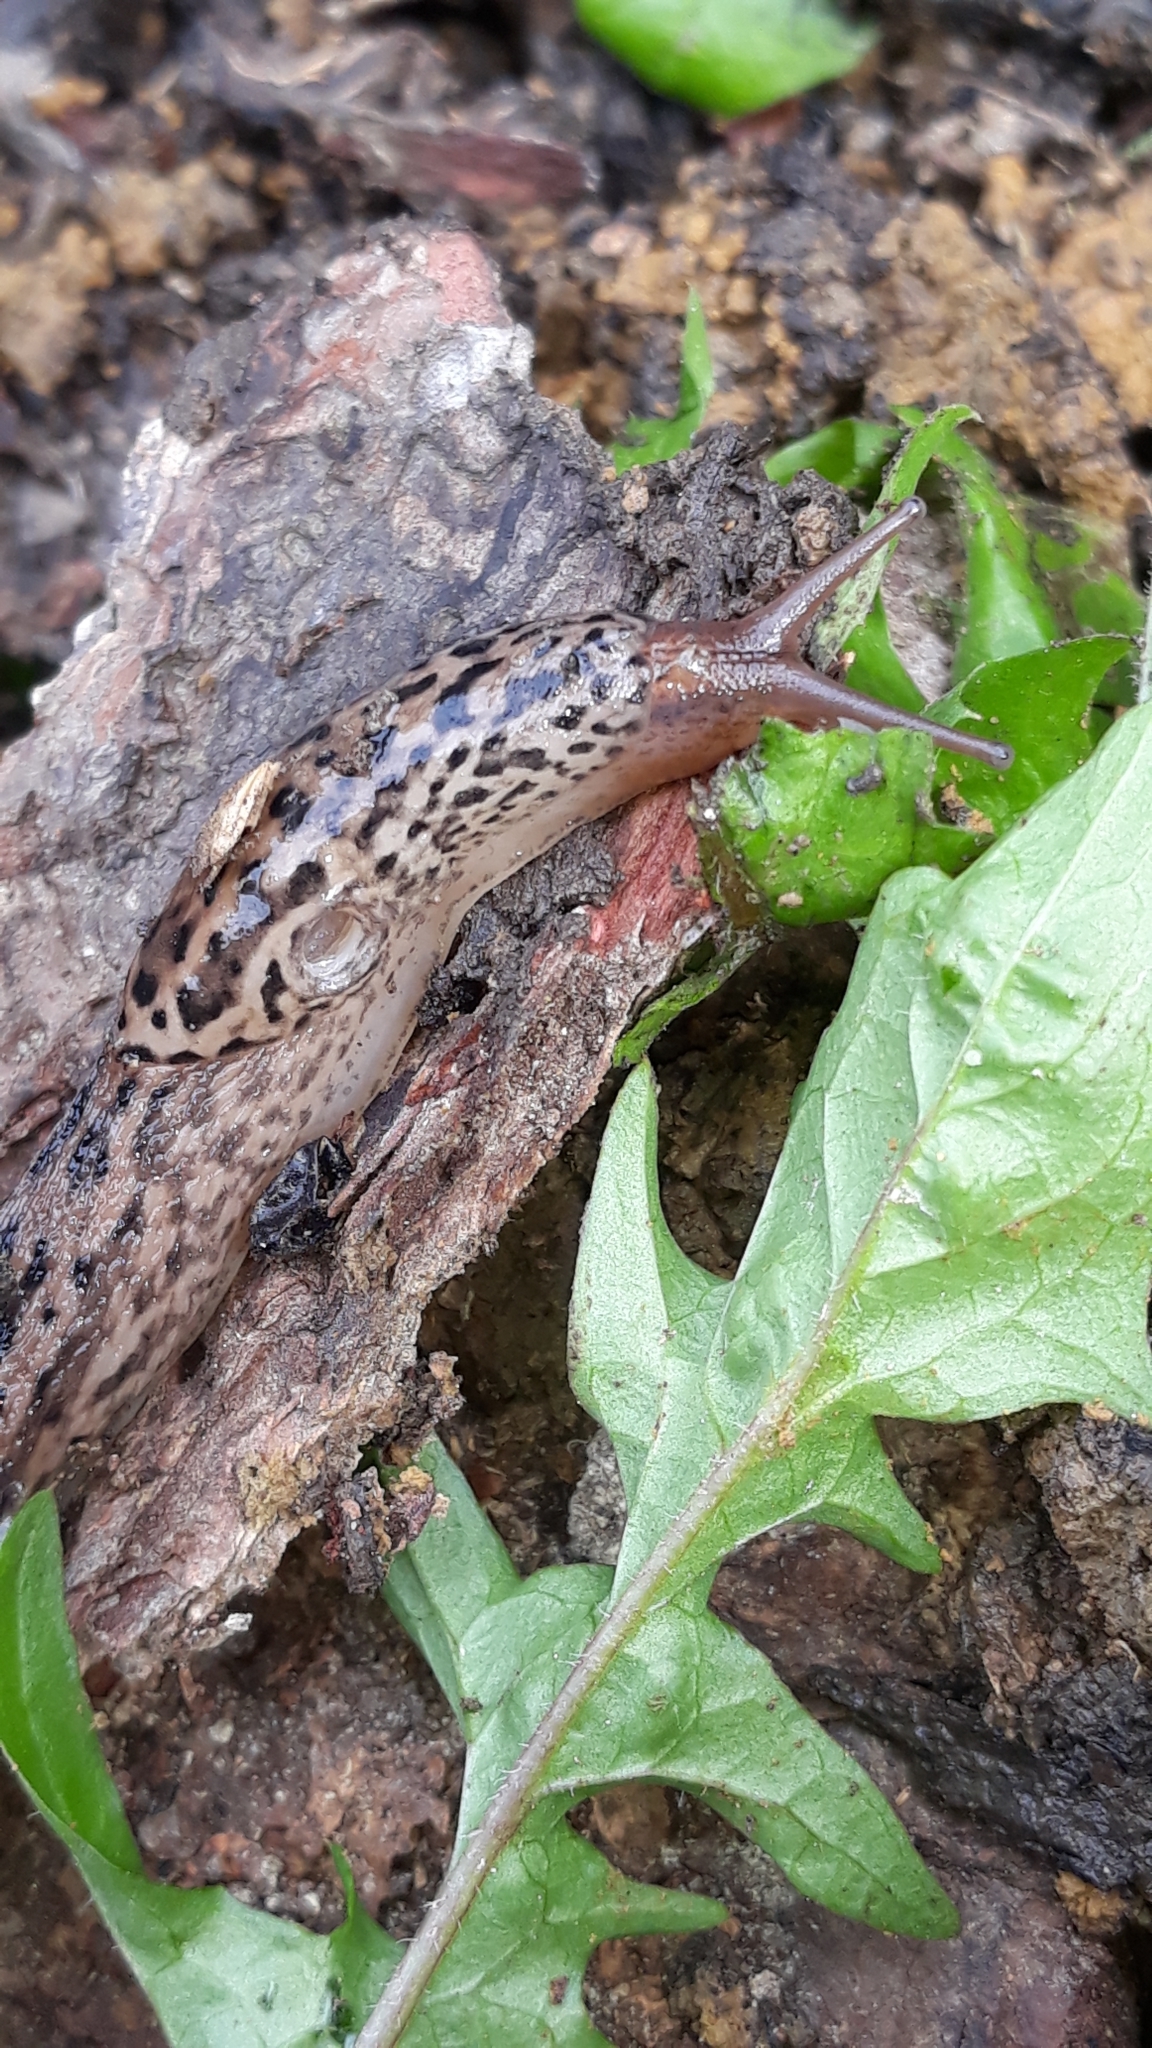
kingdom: Animalia
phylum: Mollusca
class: Gastropoda
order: Stylommatophora
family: Limacidae
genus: Limax
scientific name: Limax maximus
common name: Great grey slug
